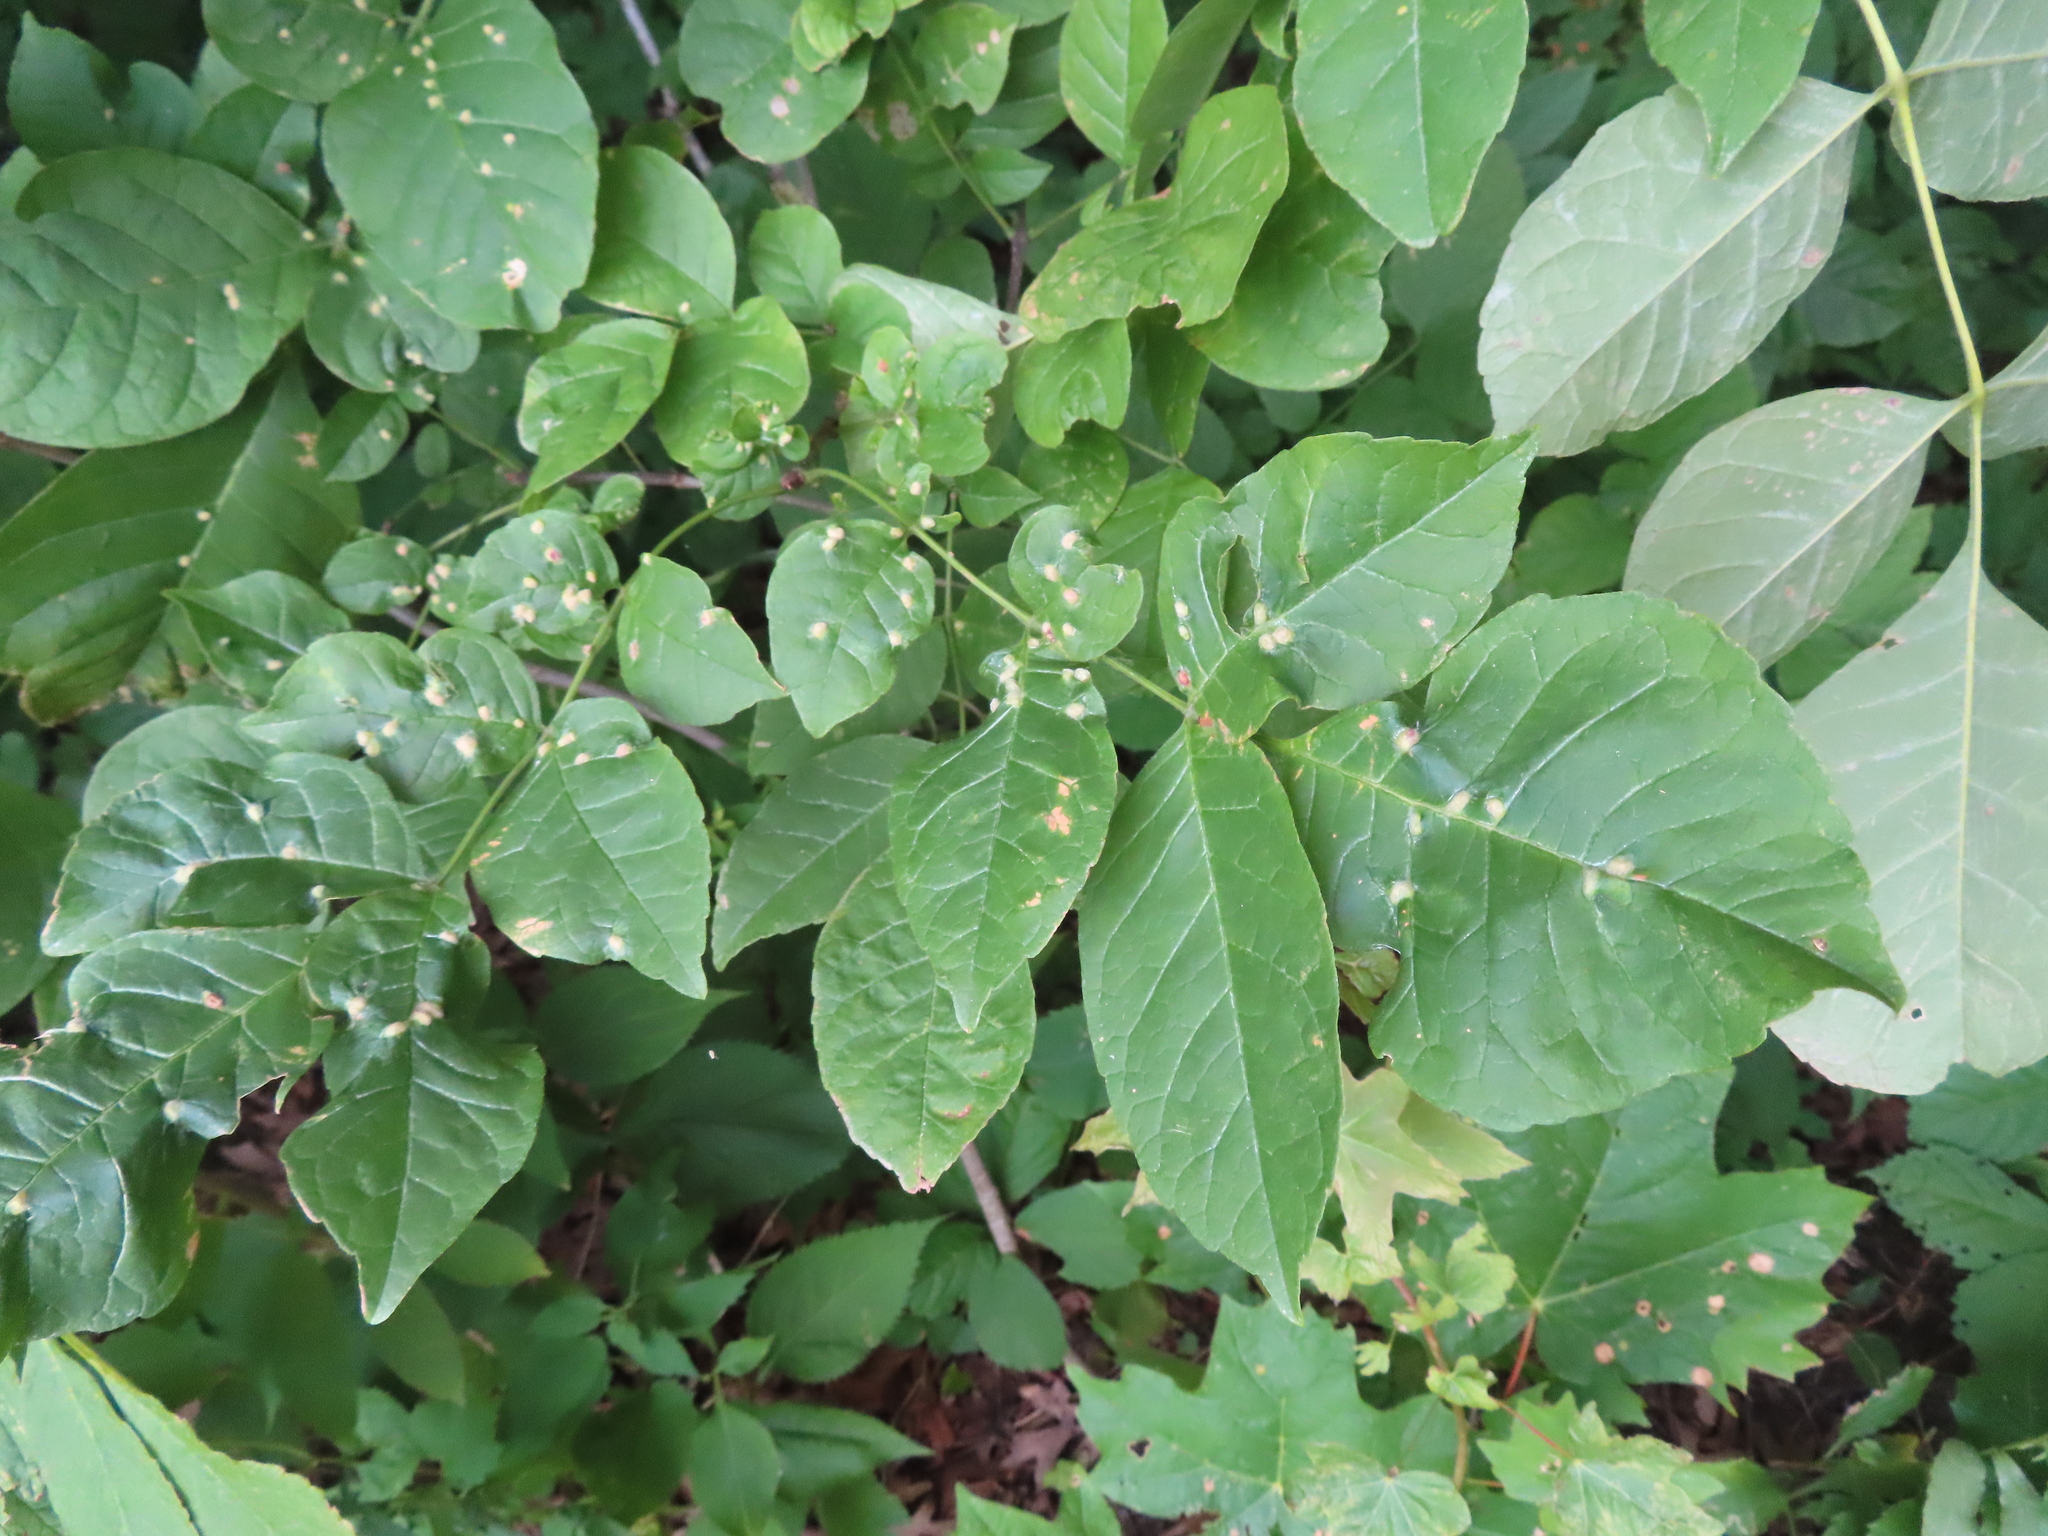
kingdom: Animalia
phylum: Arthropoda
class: Arachnida
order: Trombidiformes
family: Eriophyidae
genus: Aceria
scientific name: Aceria fraxinicola
